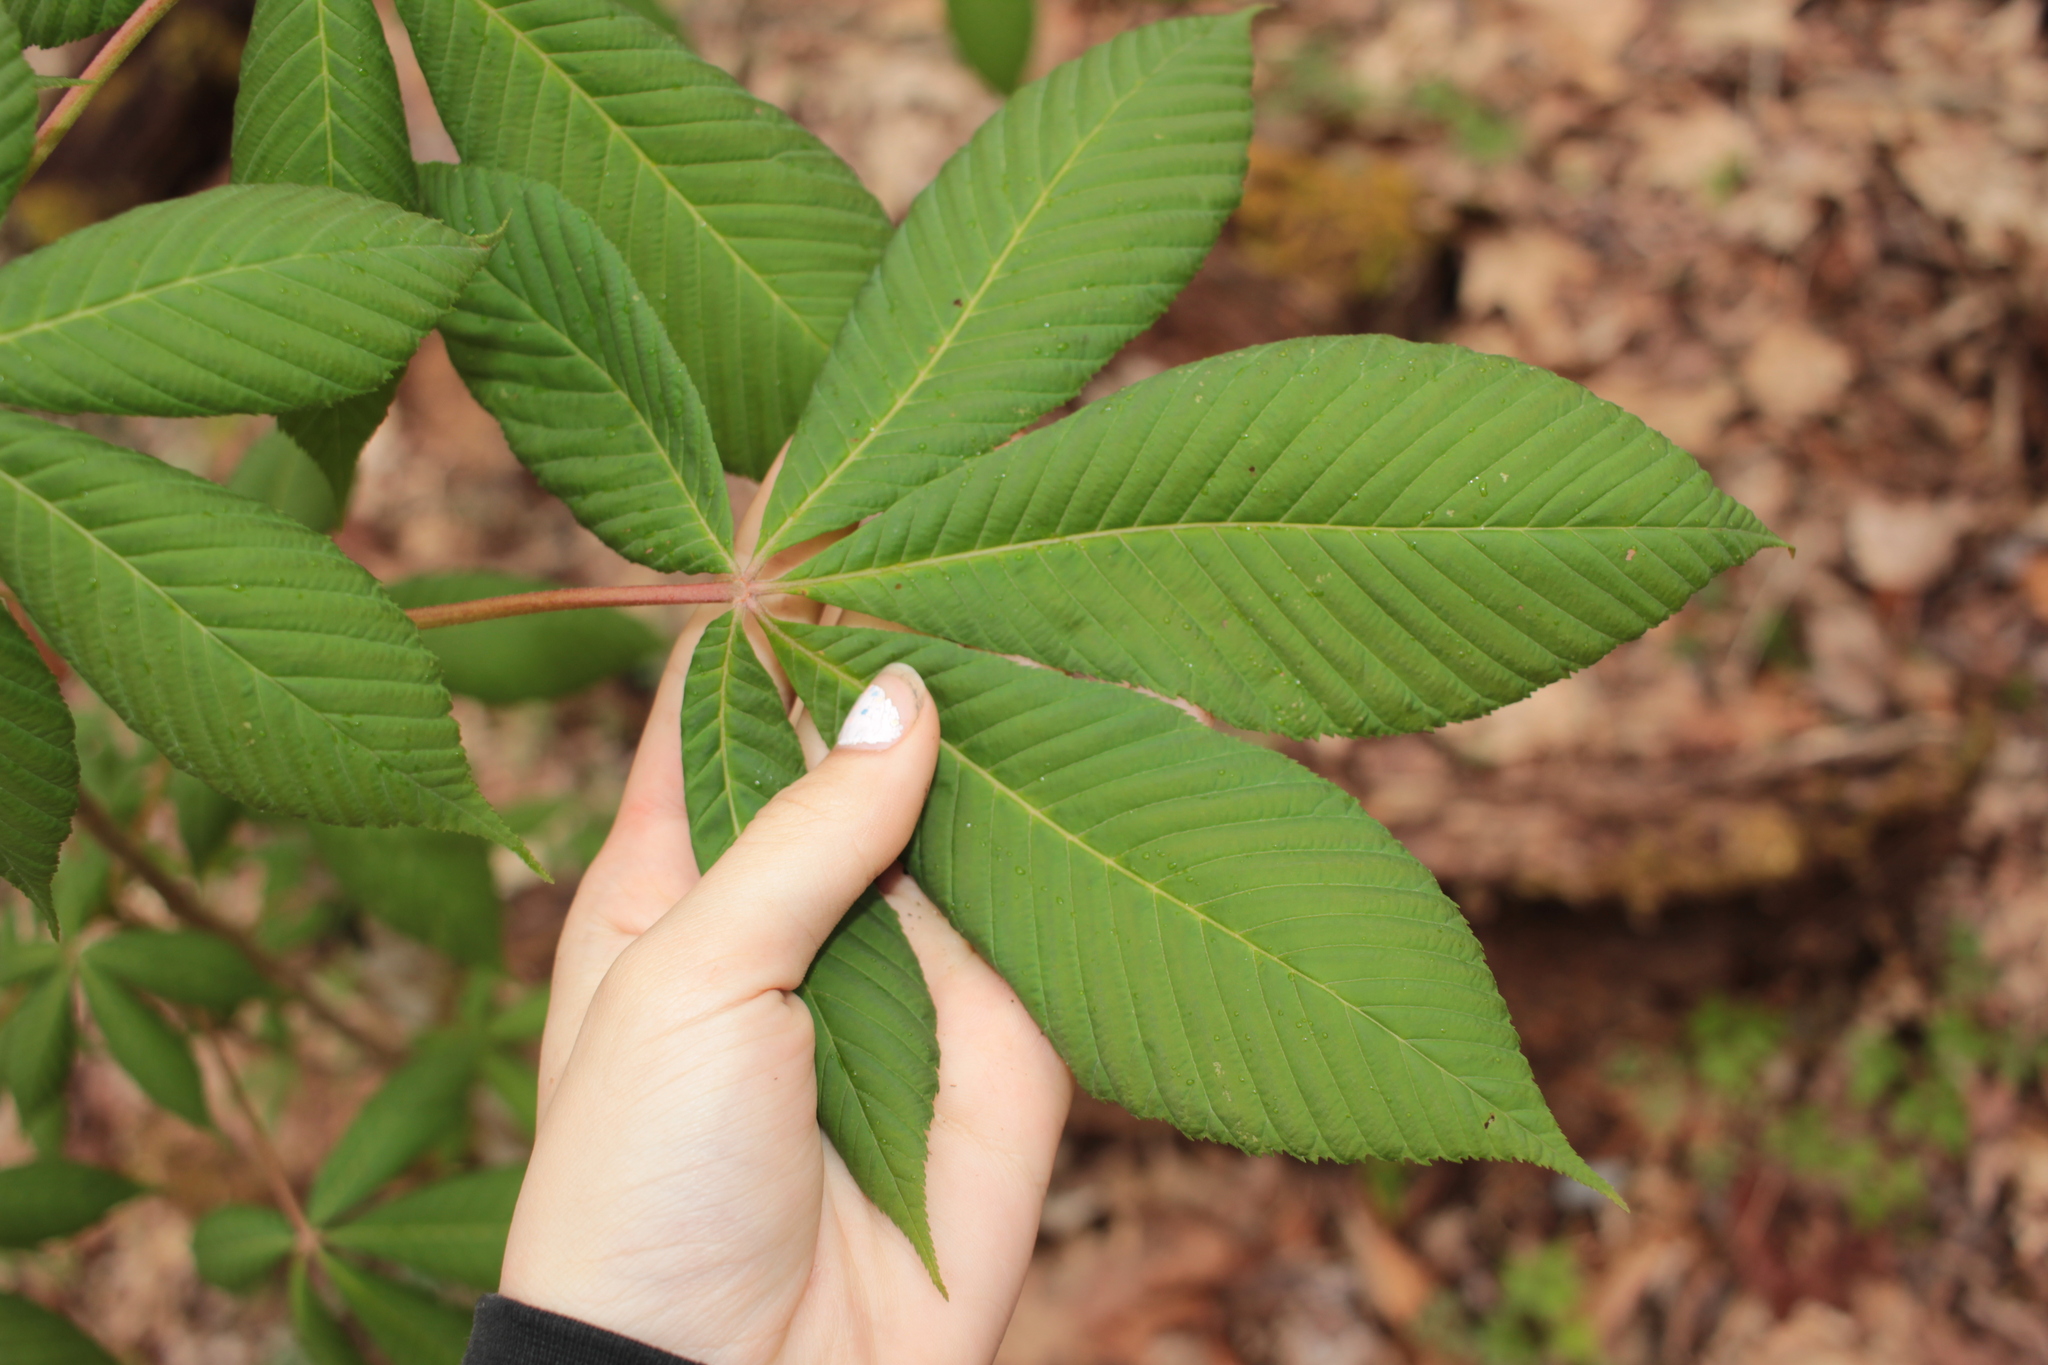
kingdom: Plantae
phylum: Tracheophyta
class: Magnoliopsida
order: Sapindales
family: Sapindaceae
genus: Aesculus
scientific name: Aesculus
